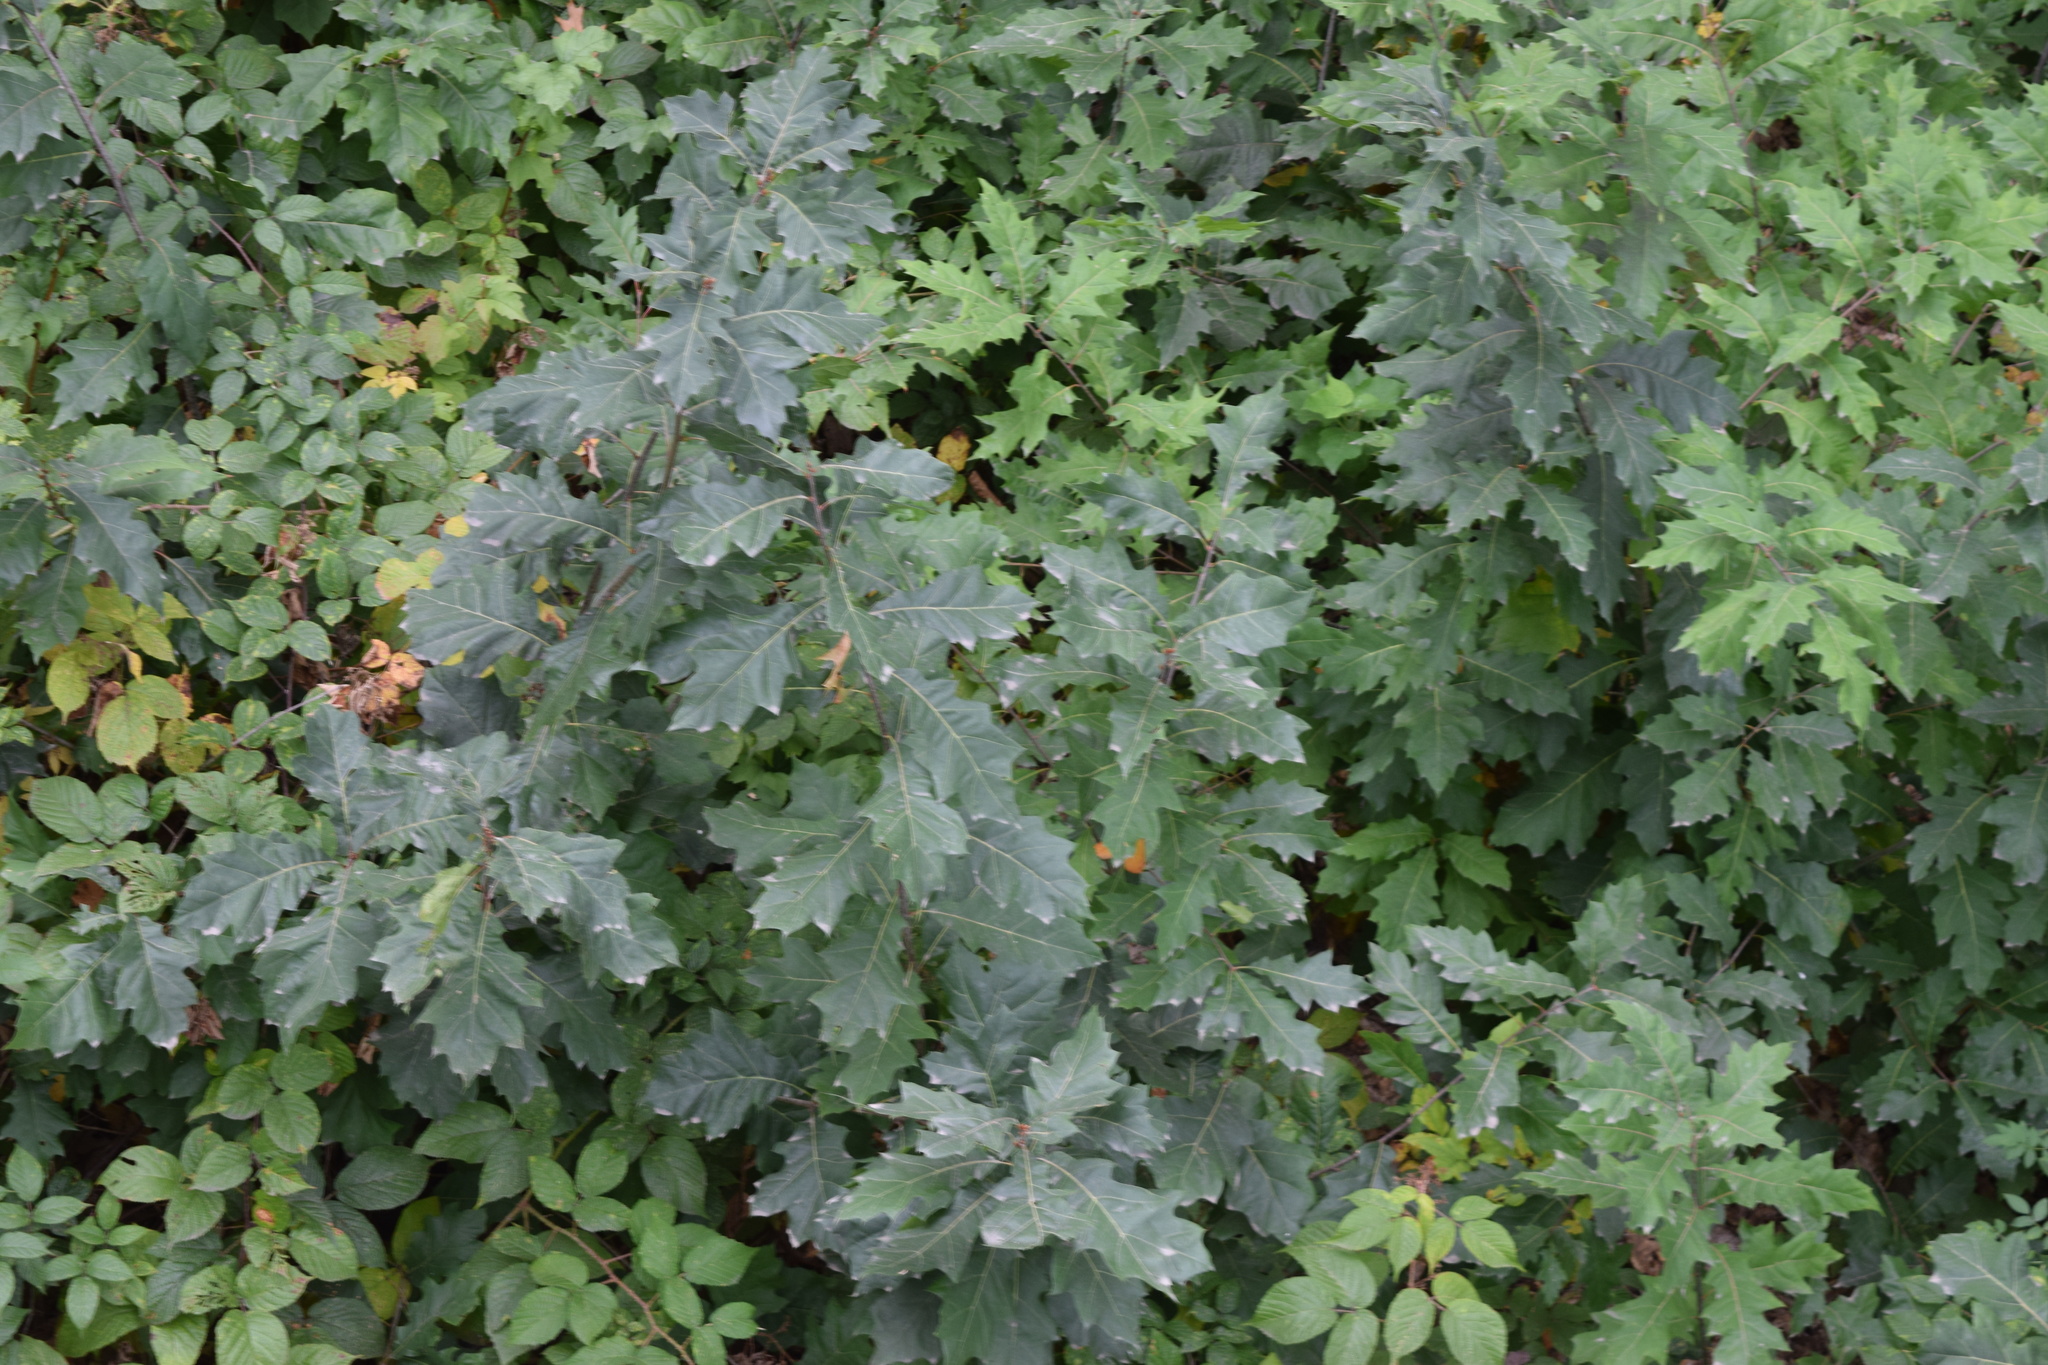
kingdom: Plantae
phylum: Tracheophyta
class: Magnoliopsida
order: Fagales
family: Fagaceae
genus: Quercus
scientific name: Quercus rubra
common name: Red oak
